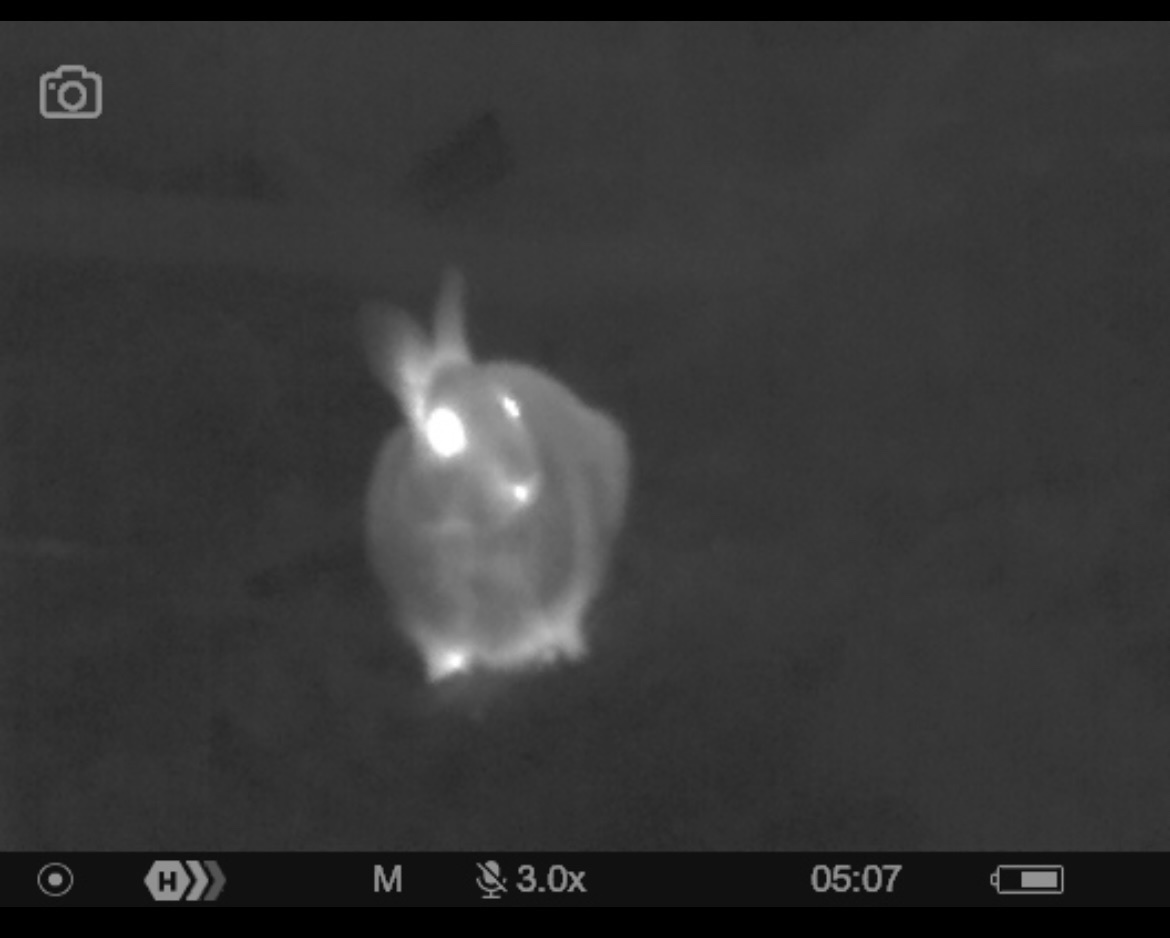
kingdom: Animalia
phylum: Chordata
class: Mammalia
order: Lagomorpha
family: Leporidae
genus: Sylvilagus
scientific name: Sylvilagus floridanus
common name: Eastern cottontail
